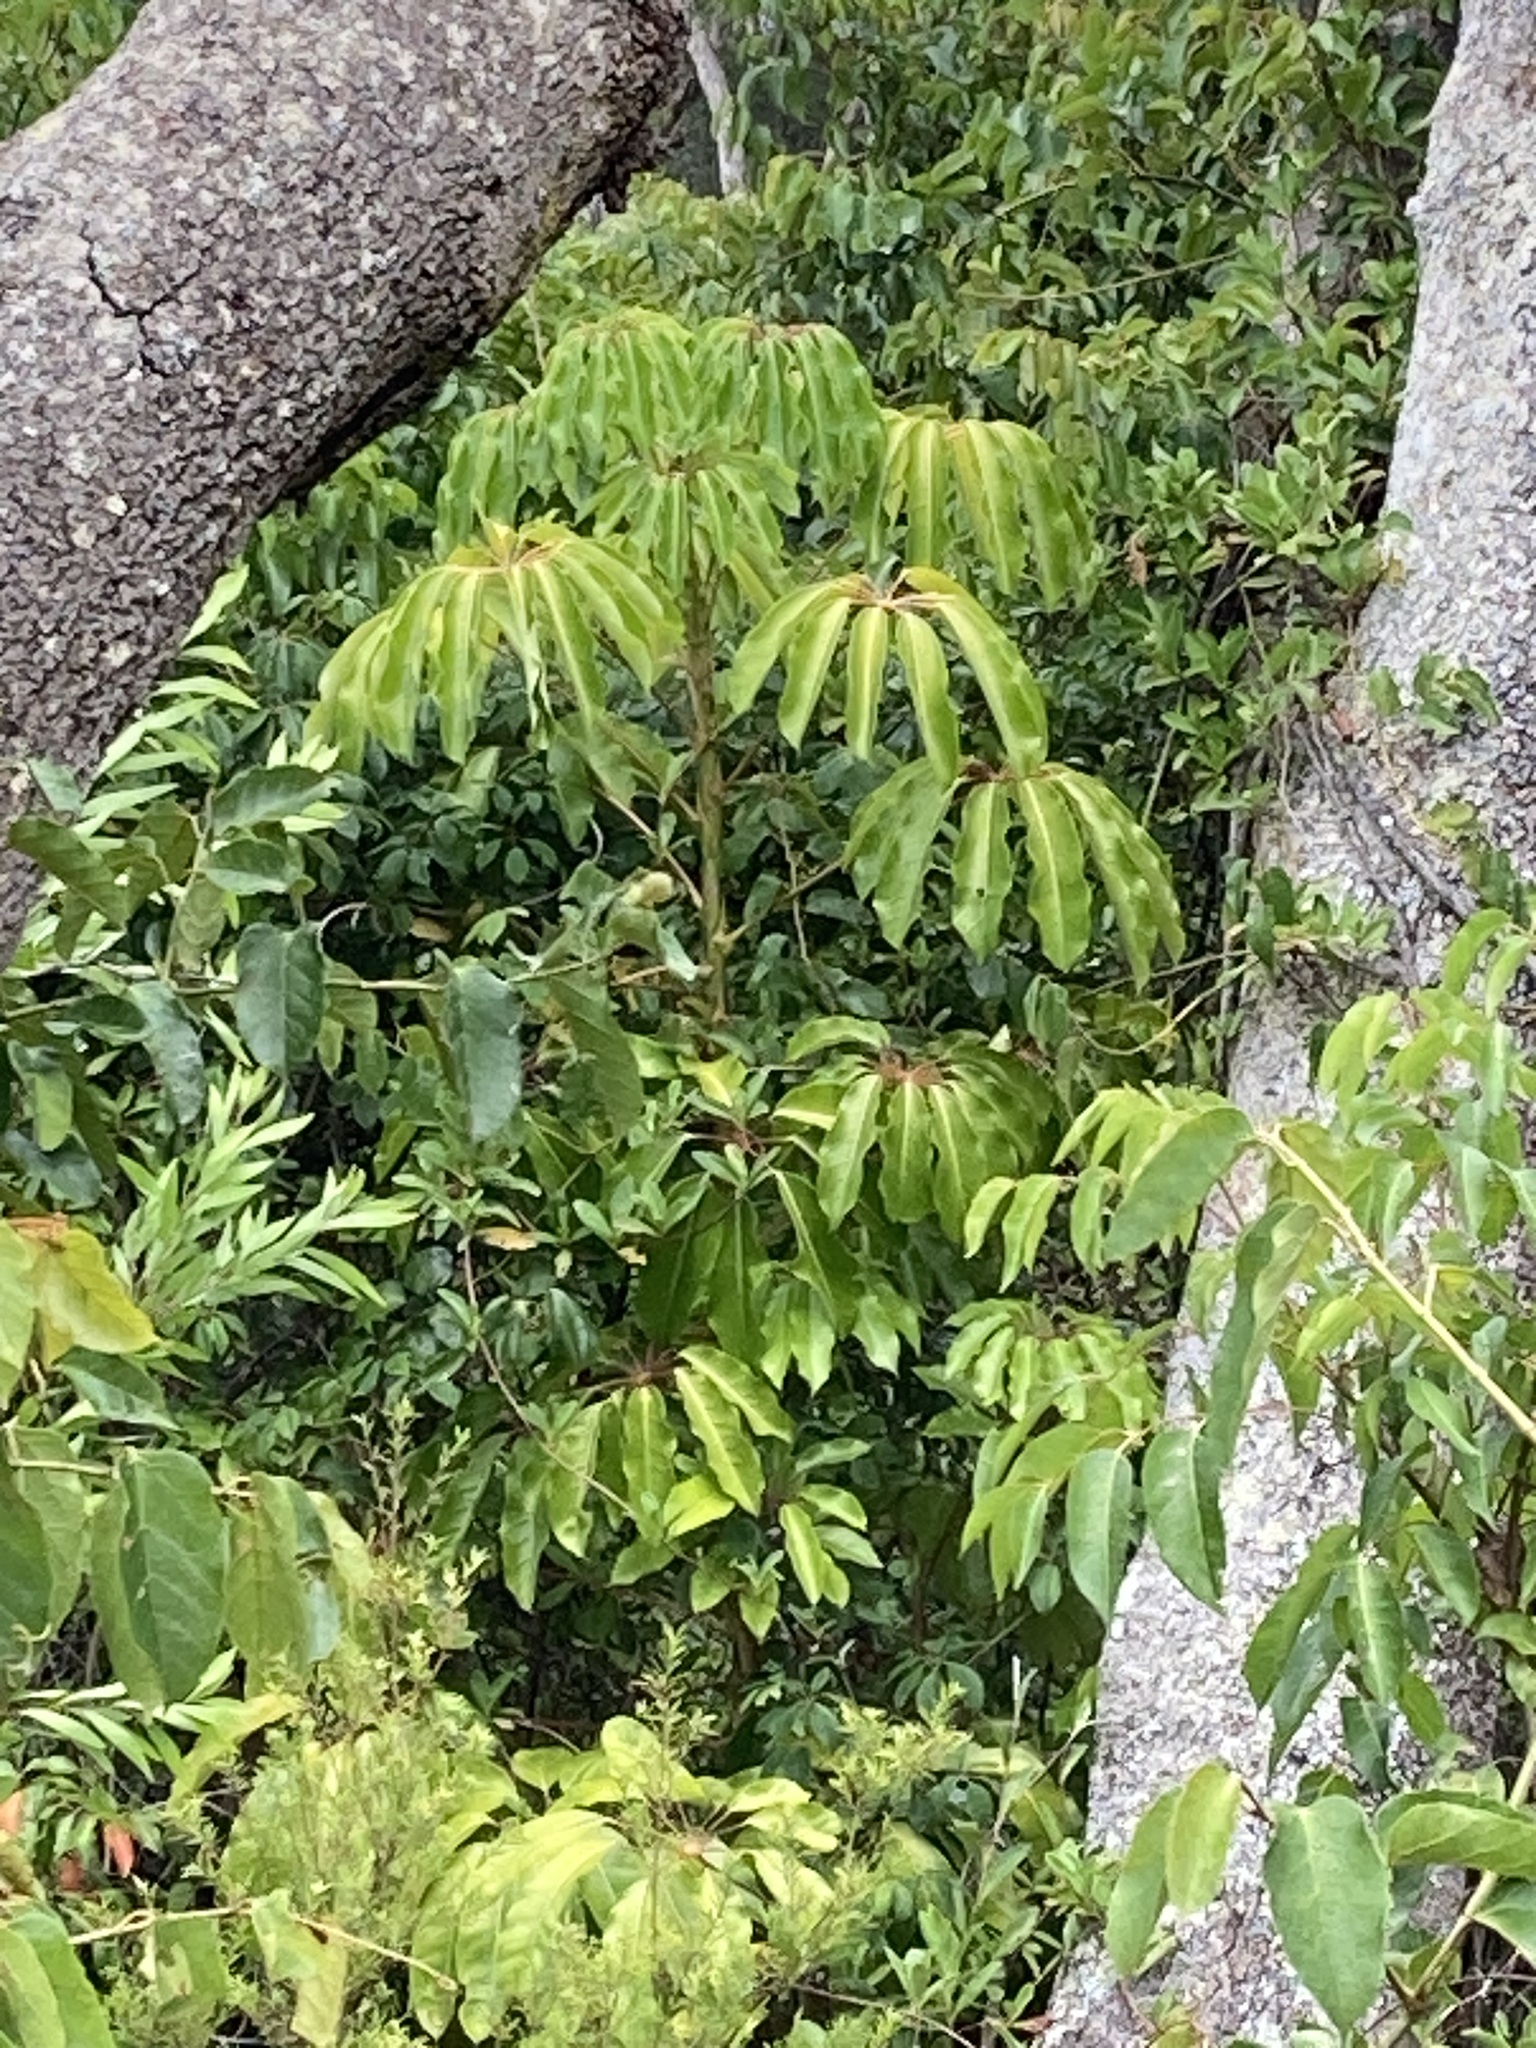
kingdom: Plantae
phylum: Tracheophyta
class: Magnoliopsida
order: Apiales
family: Araliaceae
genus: Heptapleurum
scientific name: Heptapleurum actinophyllum
